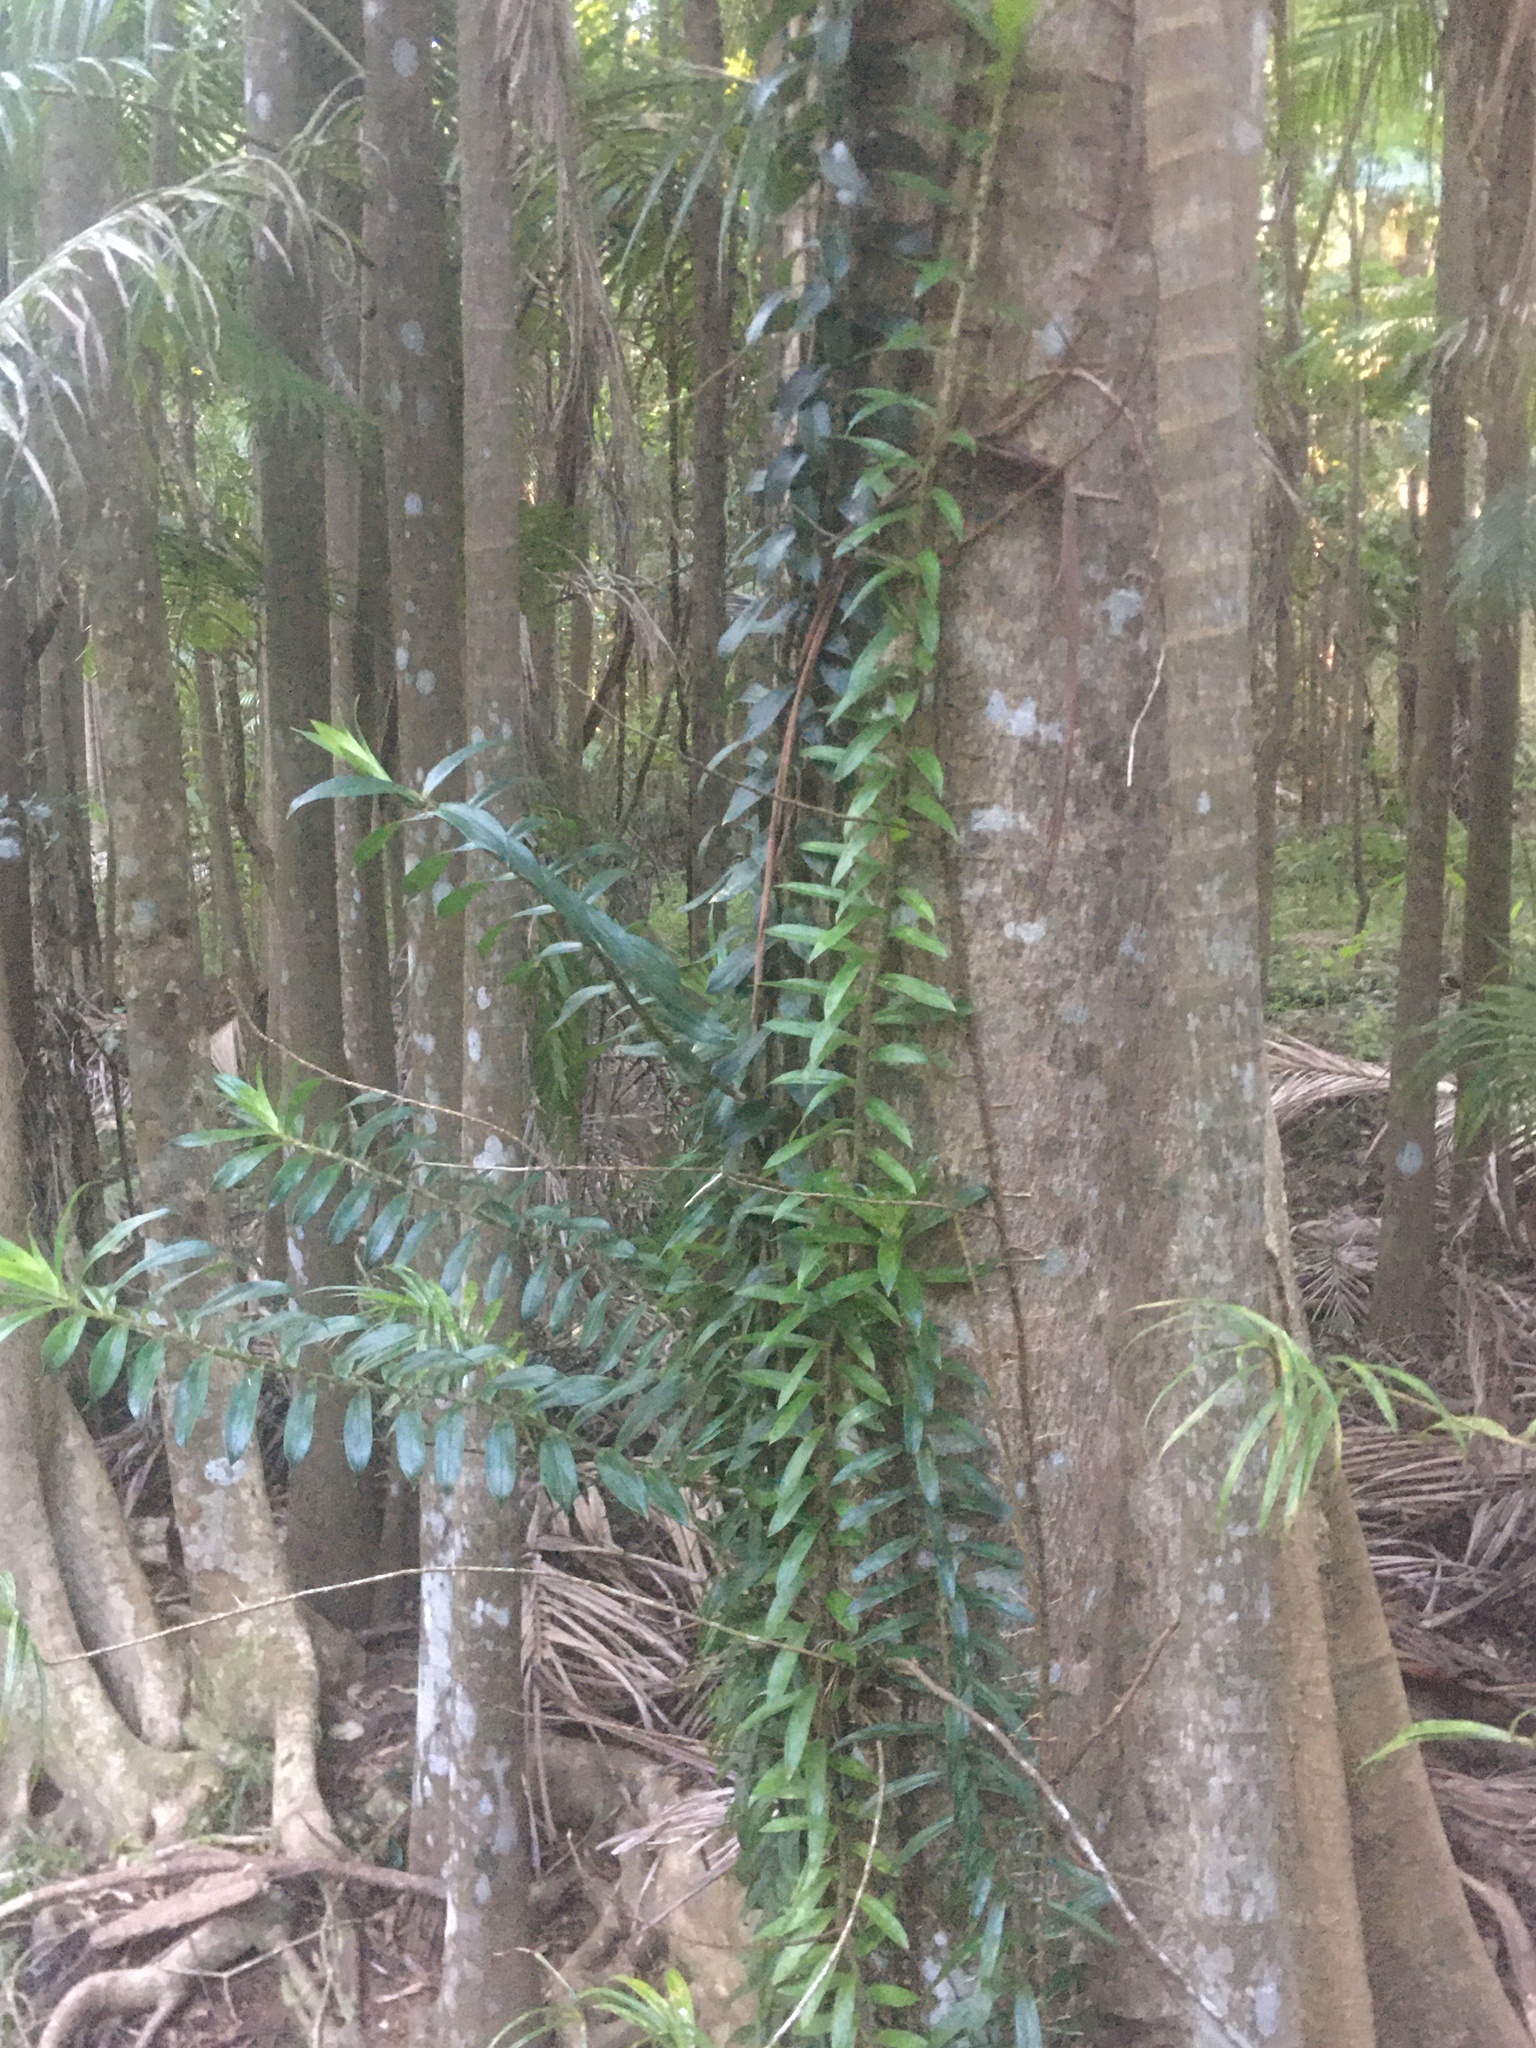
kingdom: Plantae
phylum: Tracheophyta
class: Liliopsida
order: Pandanales
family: Pandanaceae
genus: Freycinetia
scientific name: Freycinetia scandens
